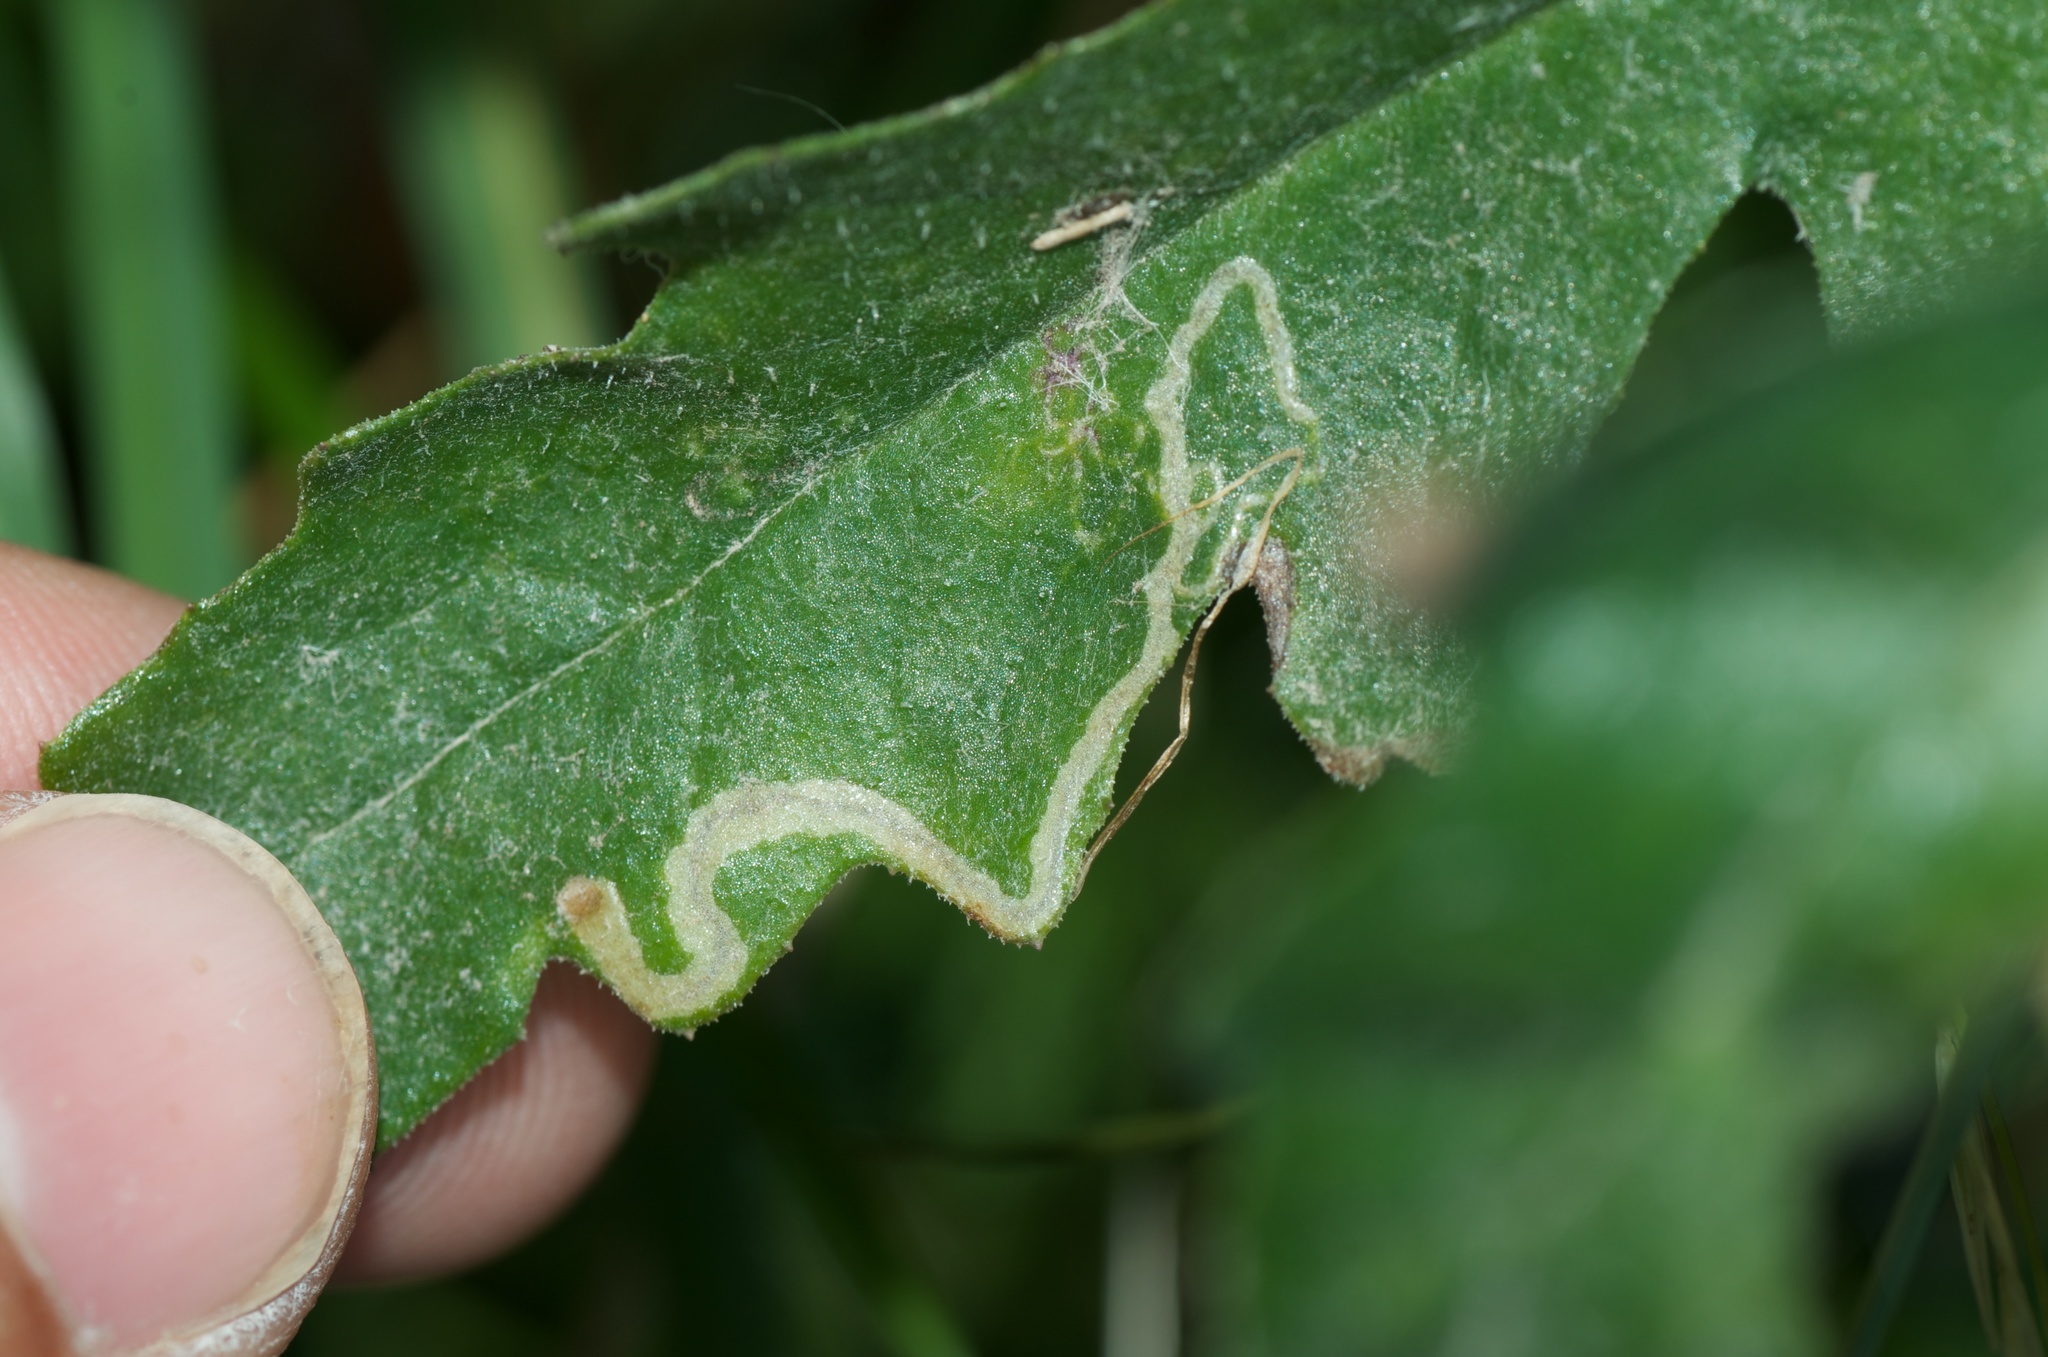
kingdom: Animalia
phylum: Arthropoda
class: Insecta
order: Lepidoptera
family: Nepticulidae
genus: Stigmella
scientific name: Stigmella ogygia
